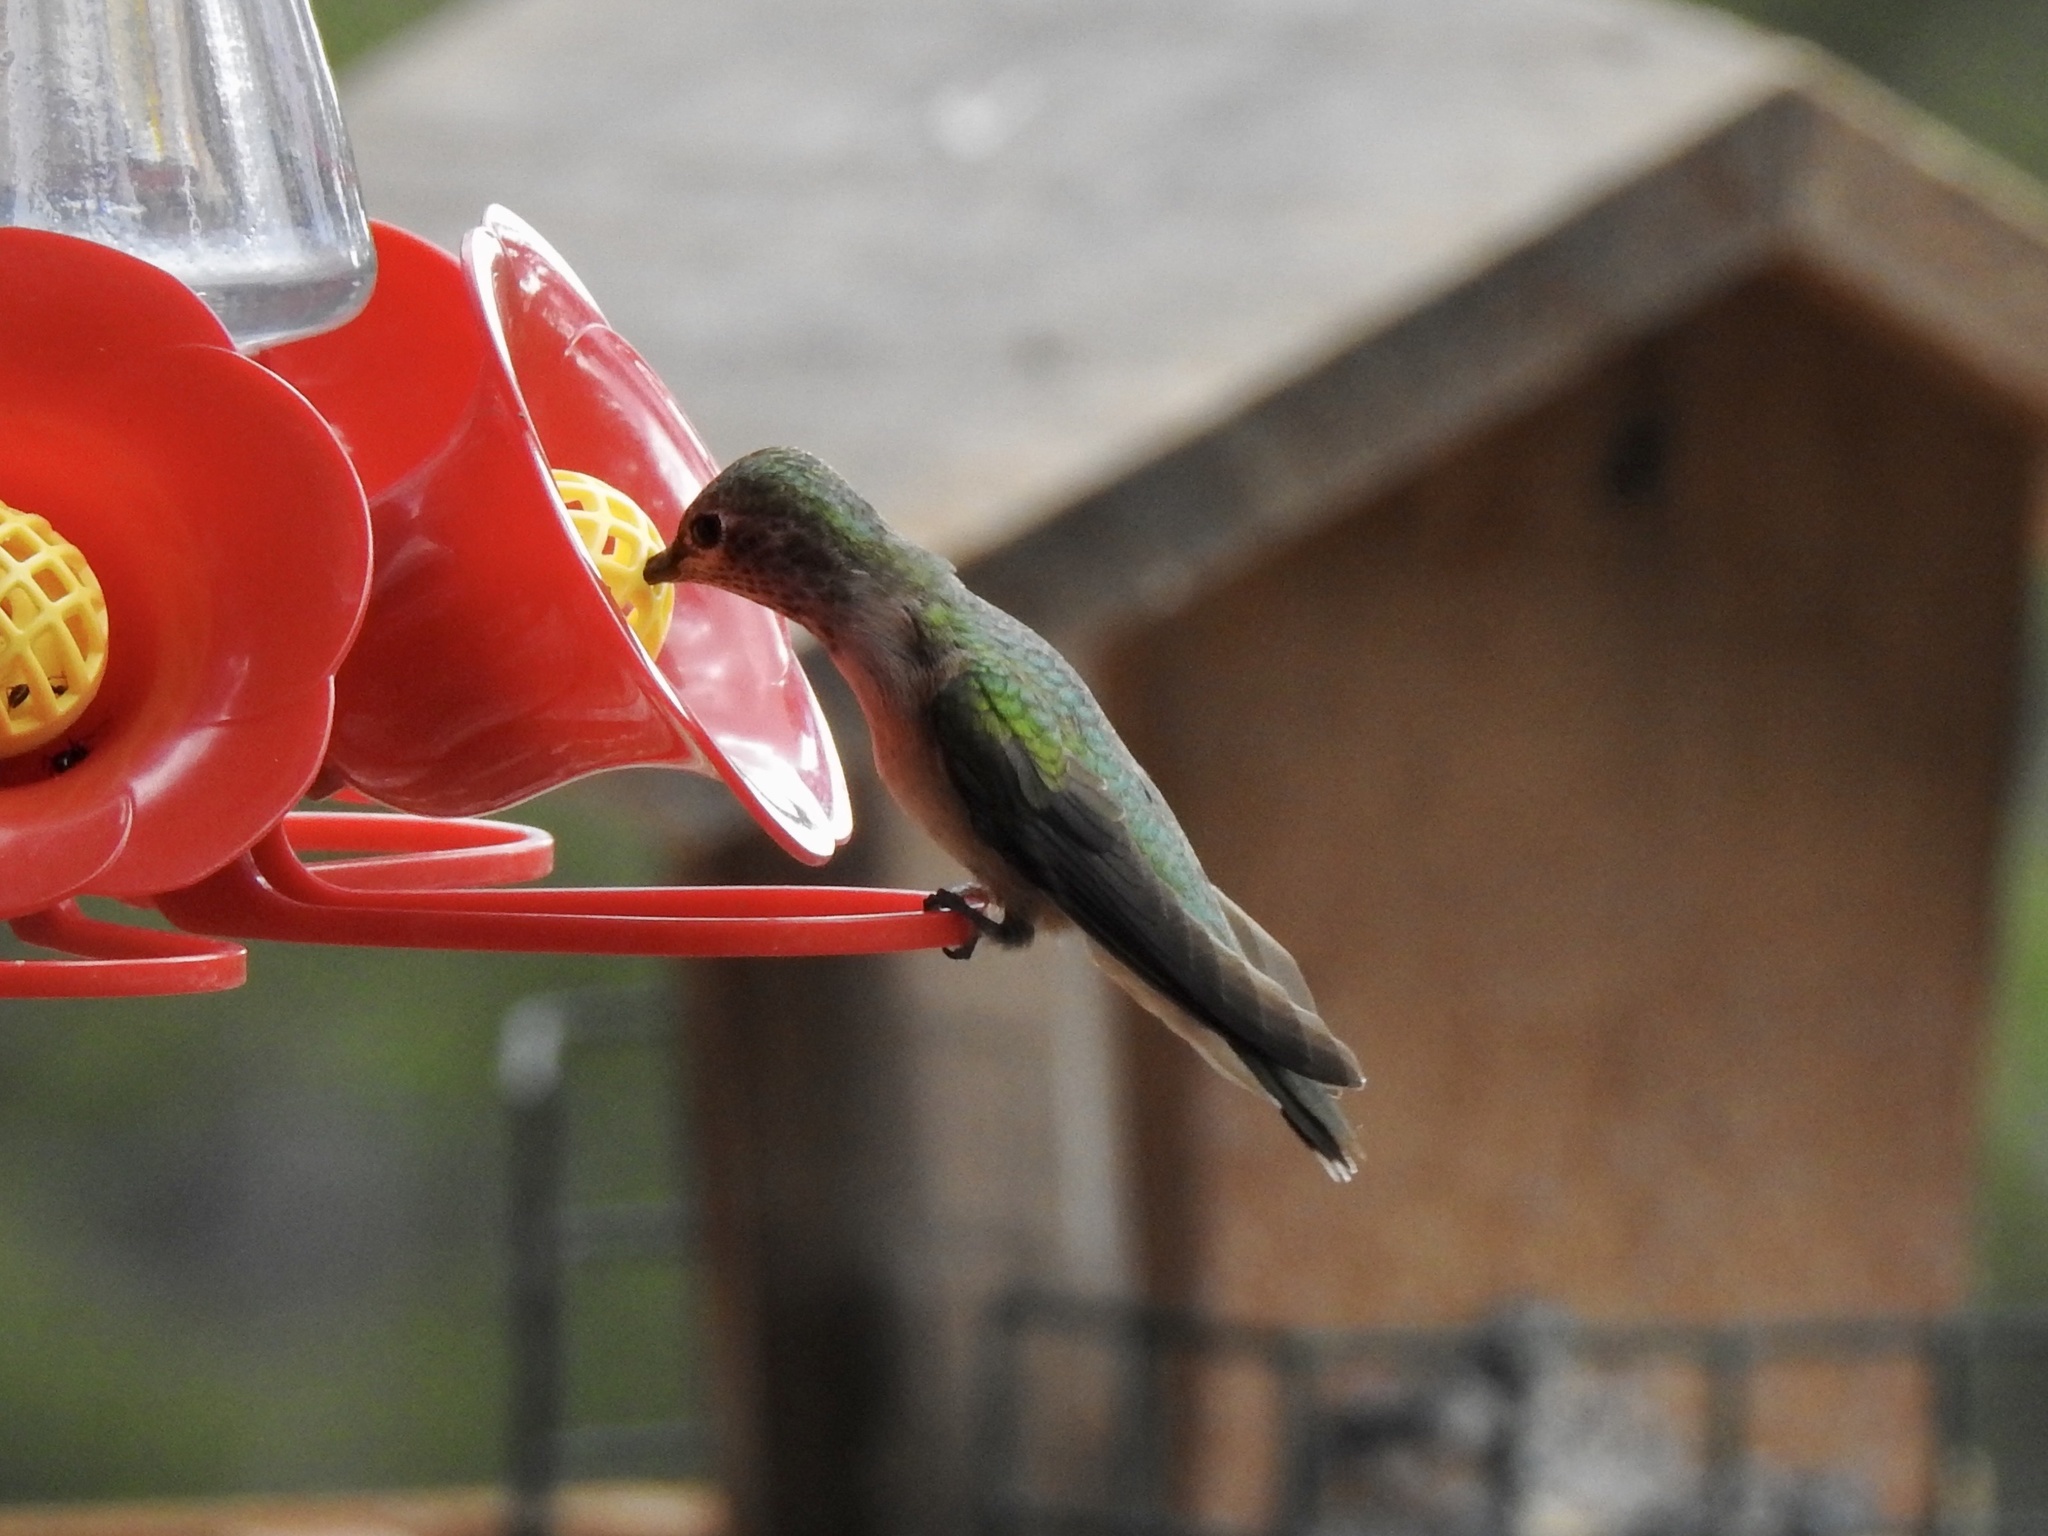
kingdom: Animalia
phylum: Chordata
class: Aves
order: Apodiformes
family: Trochilidae
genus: Selasphorus
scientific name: Selasphorus platycercus
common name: Broad-tailed hummingbird
